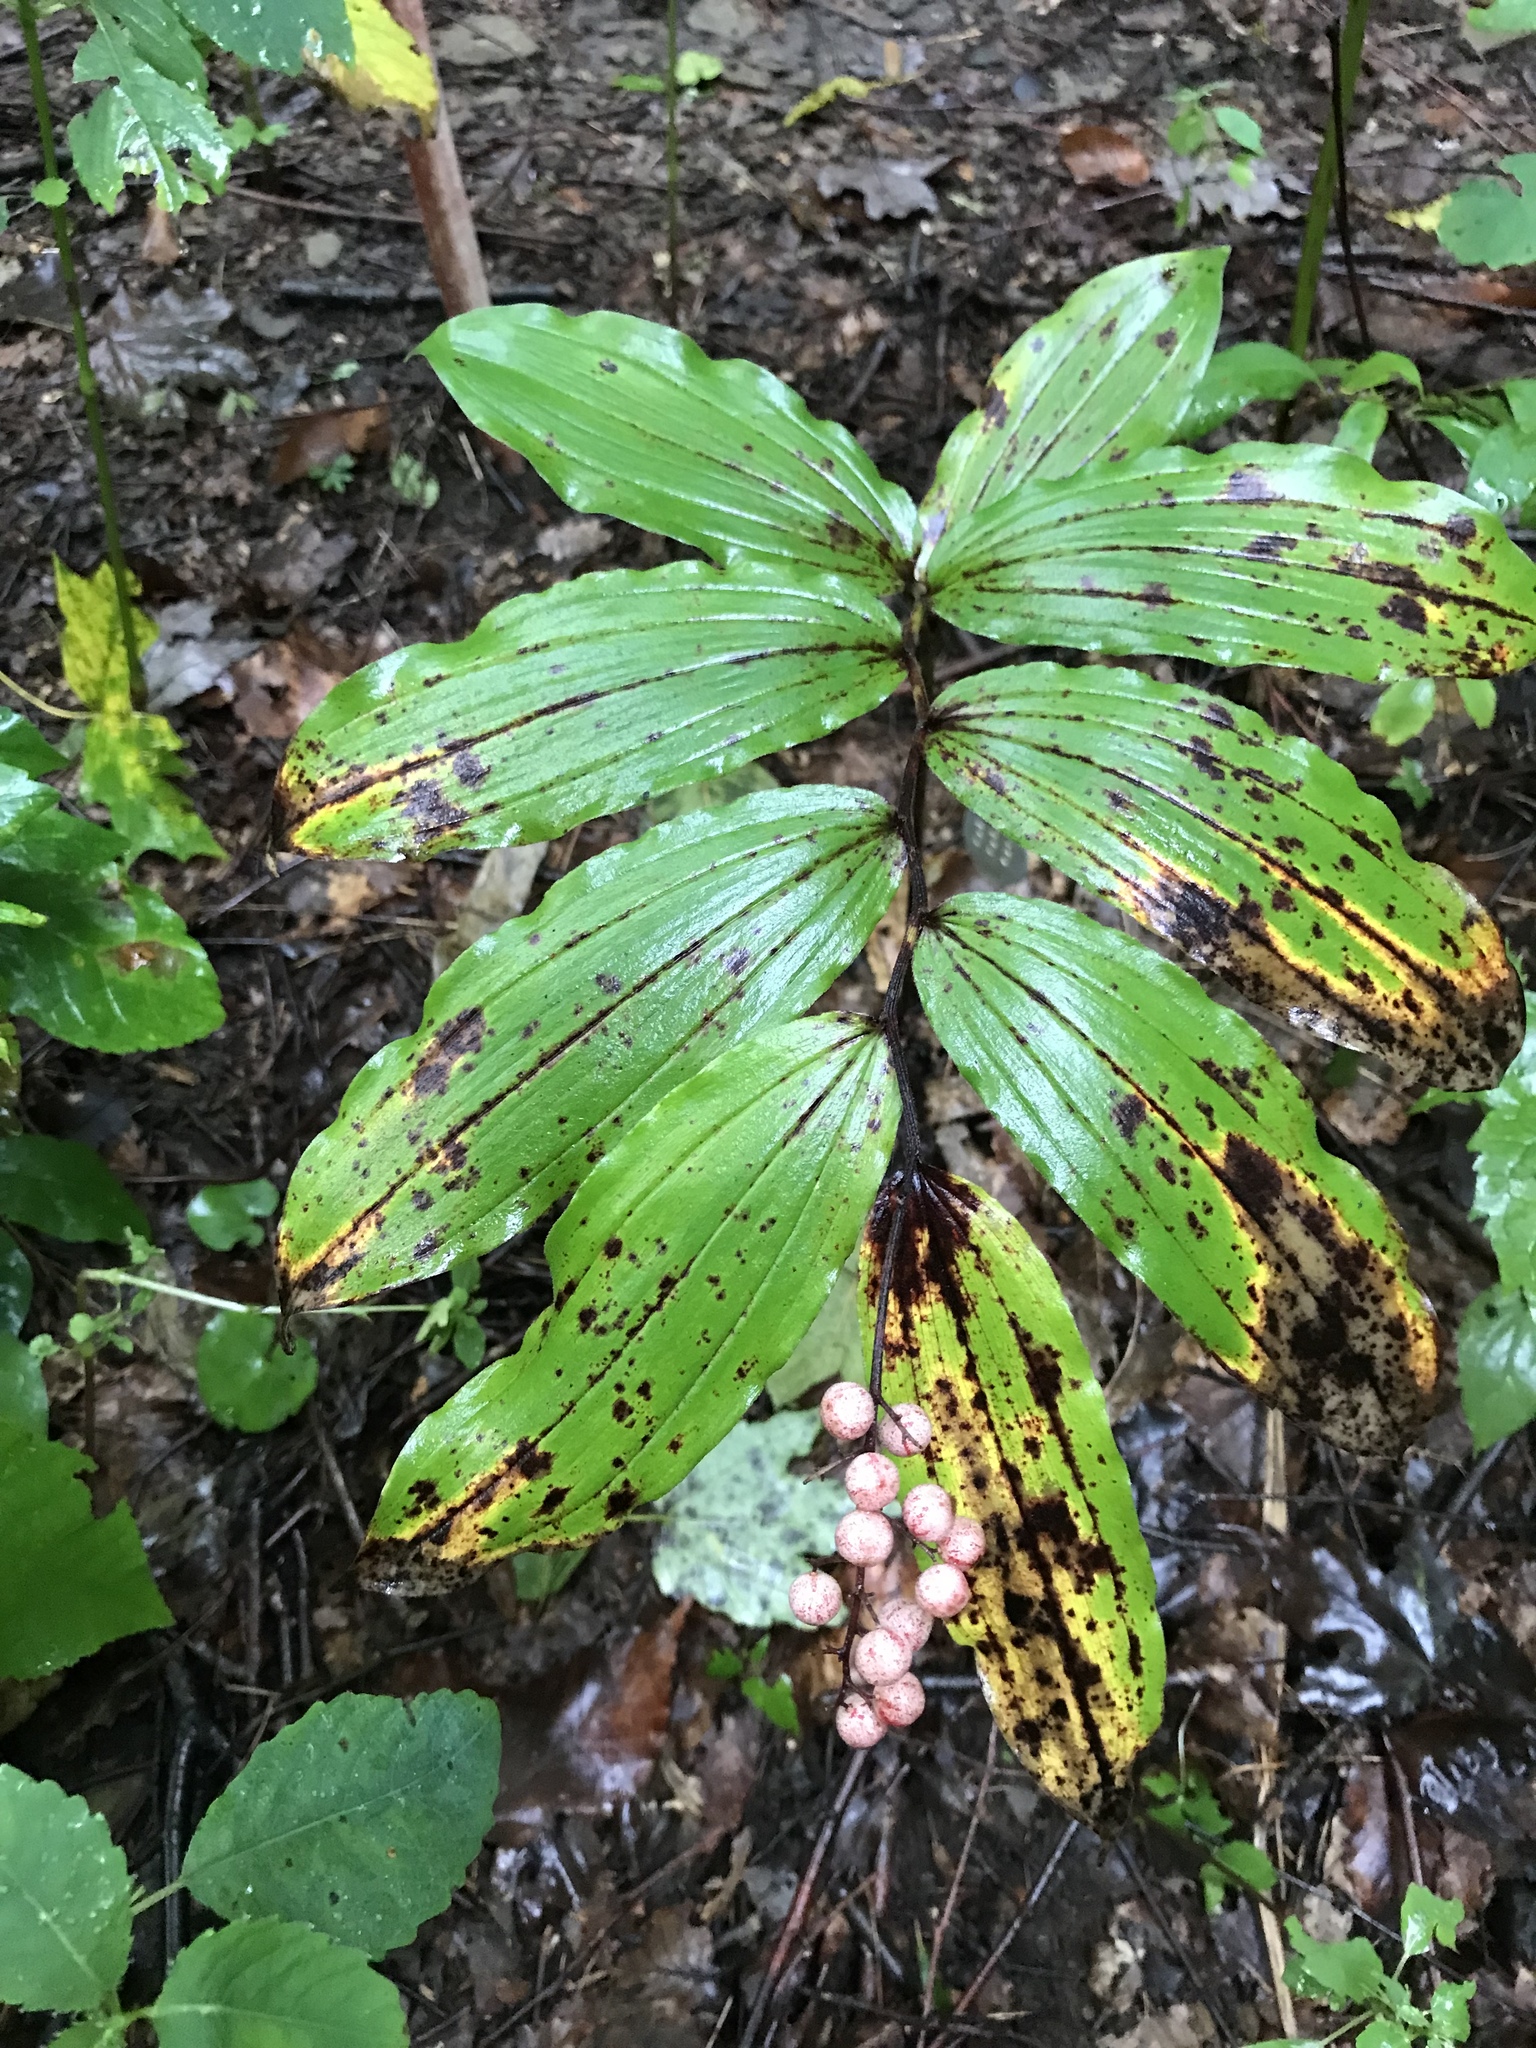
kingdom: Plantae
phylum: Tracheophyta
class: Liliopsida
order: Asparagales
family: Asparagaceae
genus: Maianthemum
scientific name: Maianthemum racemosum
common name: False spikenard
